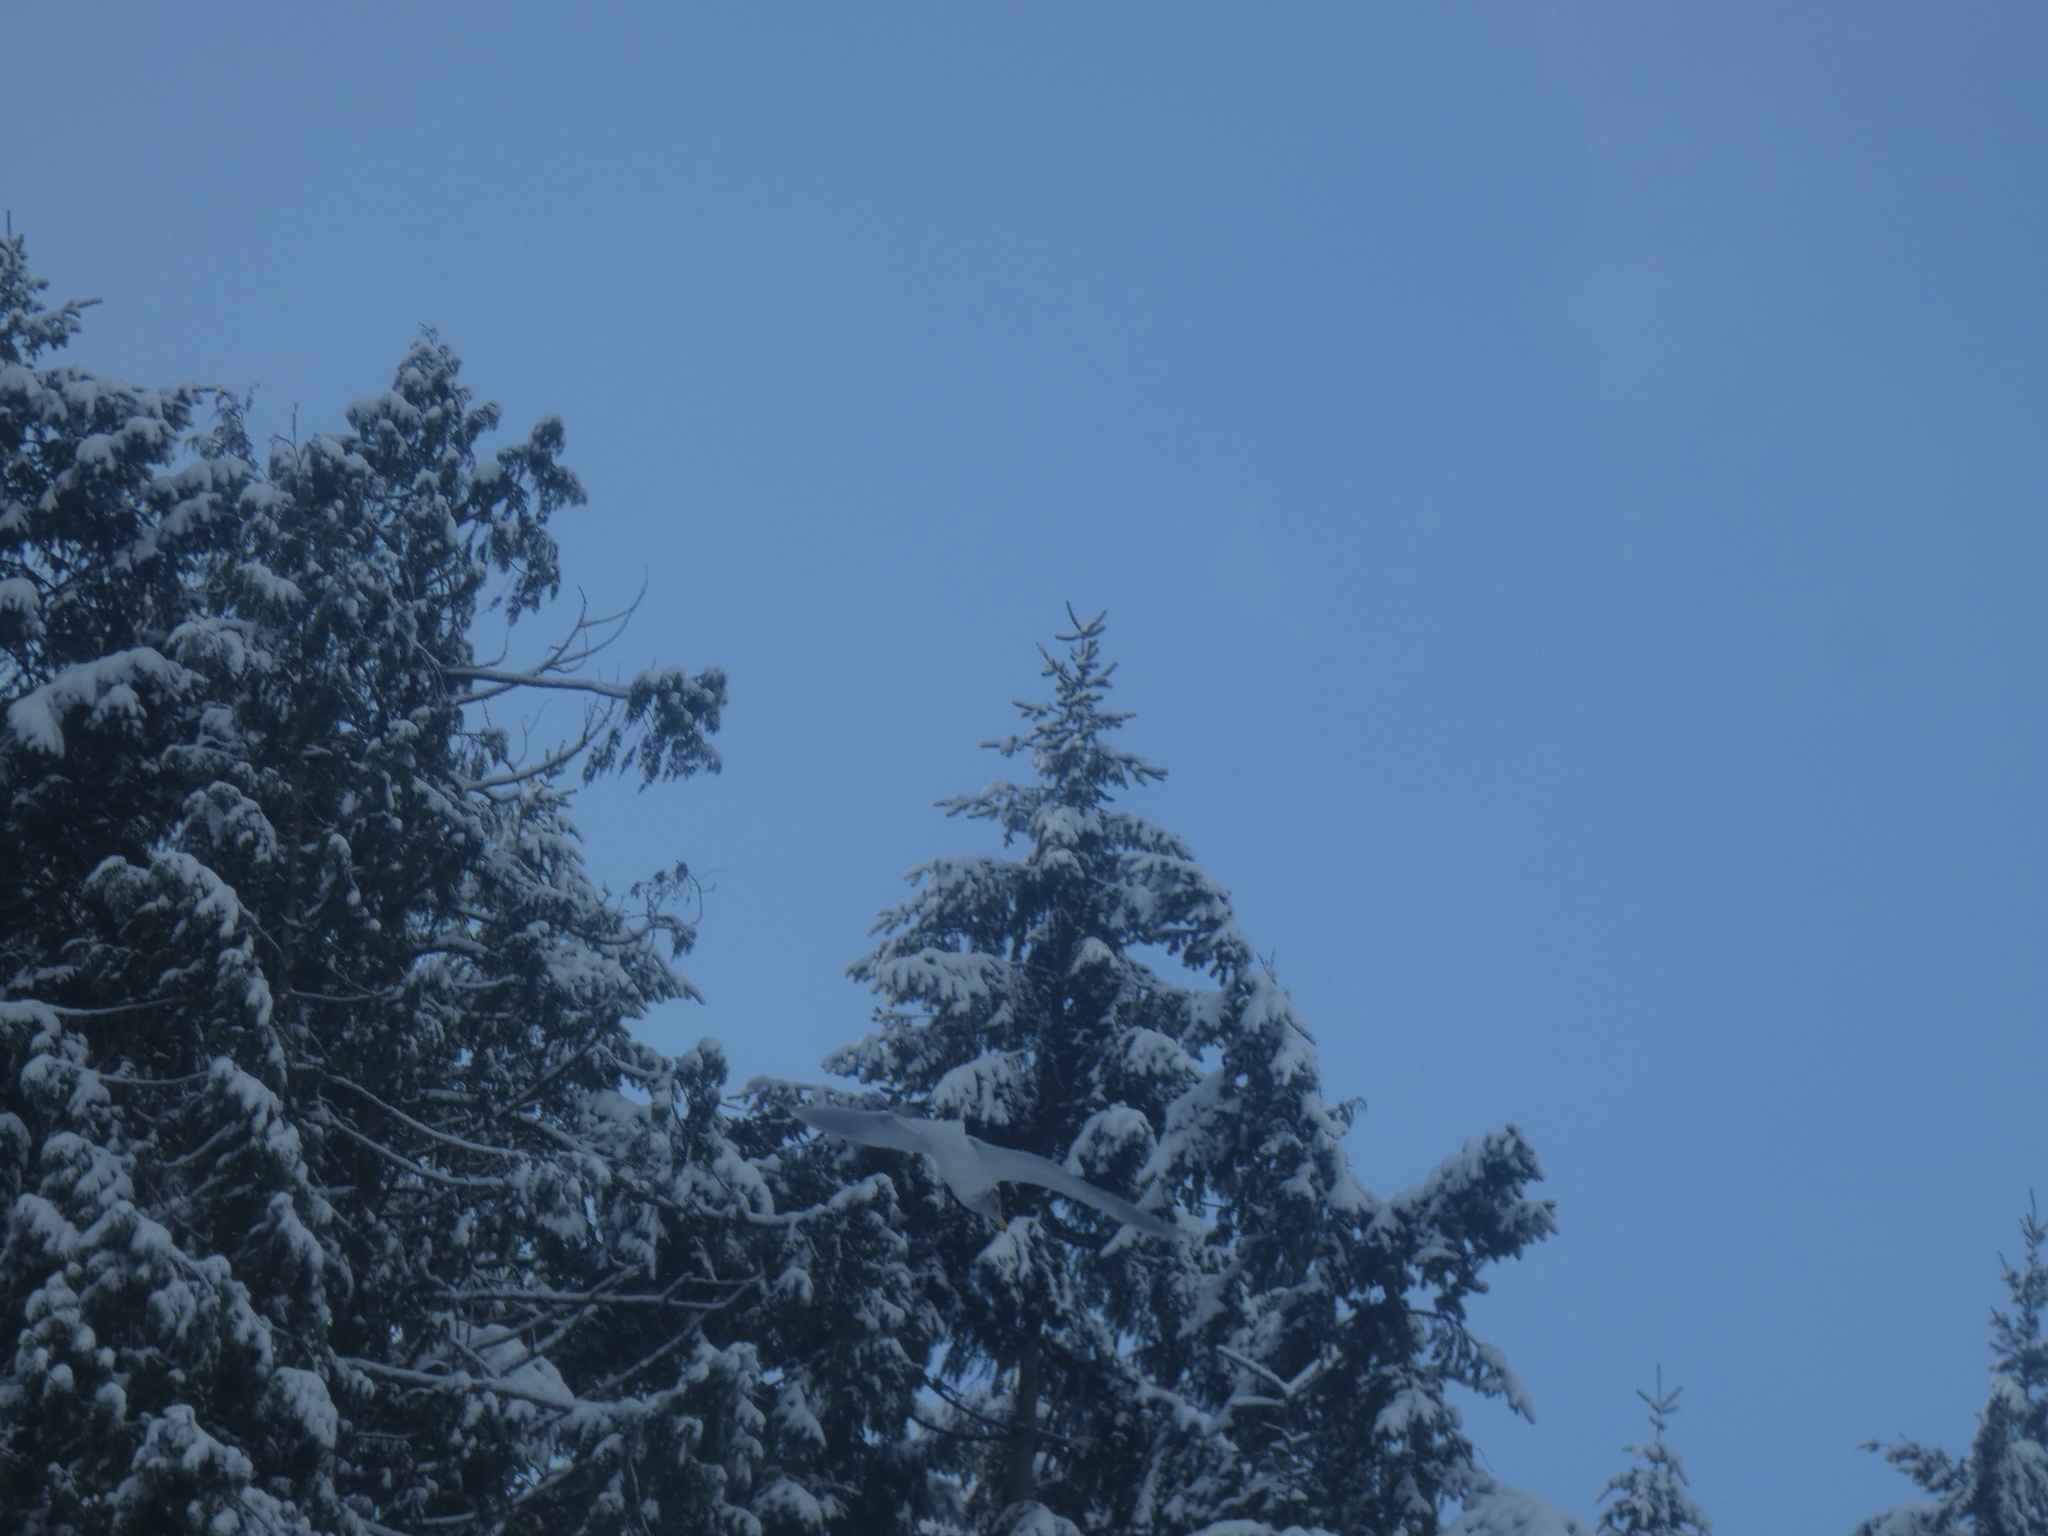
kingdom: Animalia
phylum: Chordata
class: Aves
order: Charadriiformes
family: Laridae
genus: Larus
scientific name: Larus
